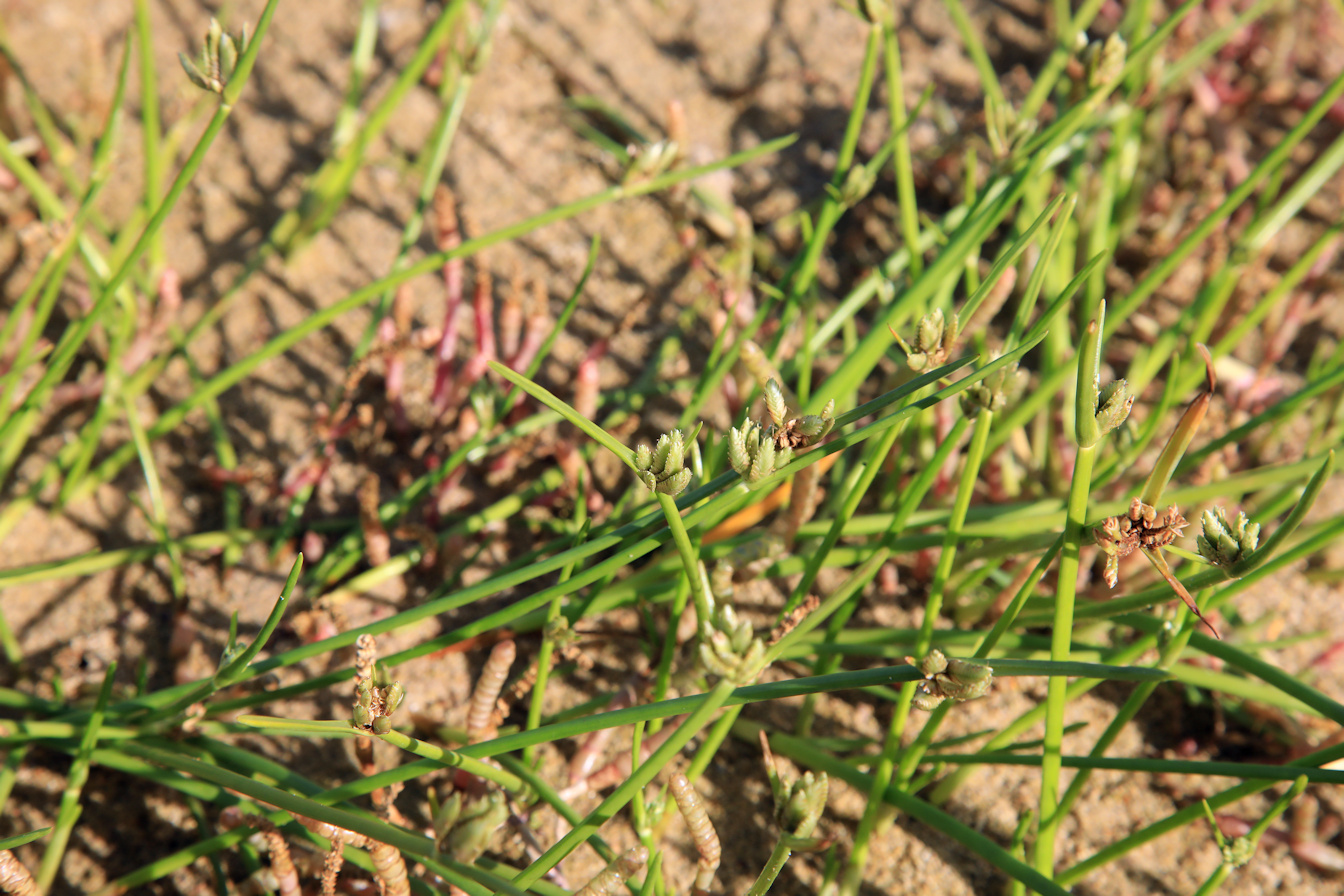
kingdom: Plantae
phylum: Tracheophyta
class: Liliopsida
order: Poales
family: Cyperaceae
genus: Cyperus
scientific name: Cyperus laevigatus
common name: Smooth flat sedge
